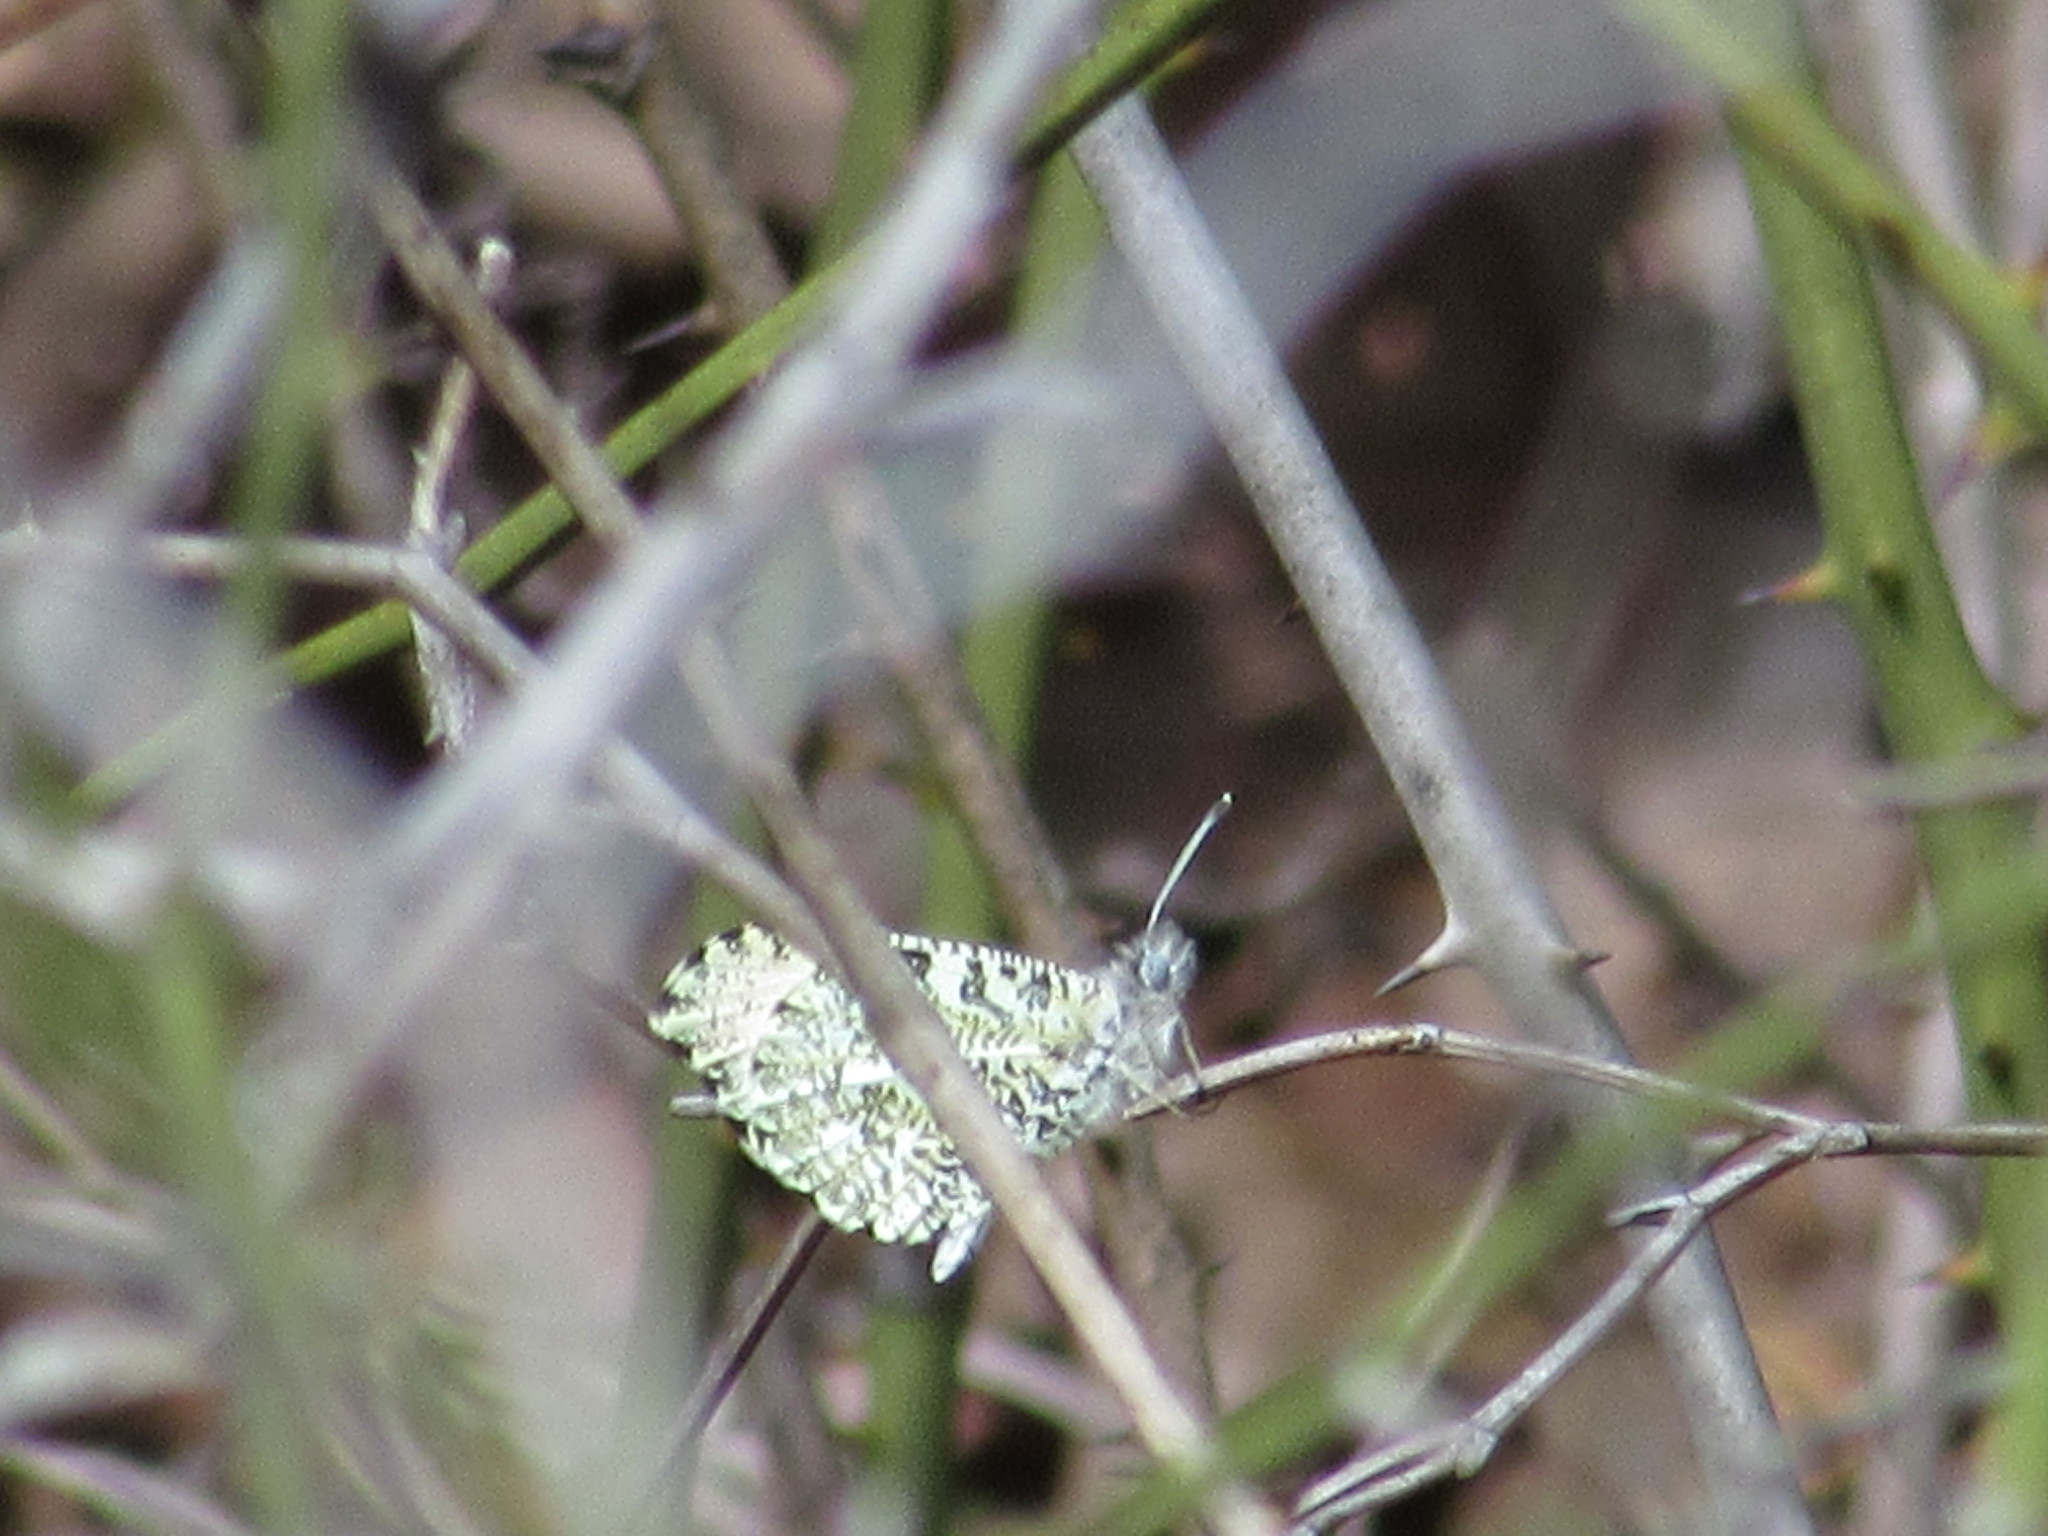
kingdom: Animalia
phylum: Arthropoda
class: Insecta
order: Lepidoptera
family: Pieridae
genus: Anthocharis
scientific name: Anthocharis midea
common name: Falcate orangetip
